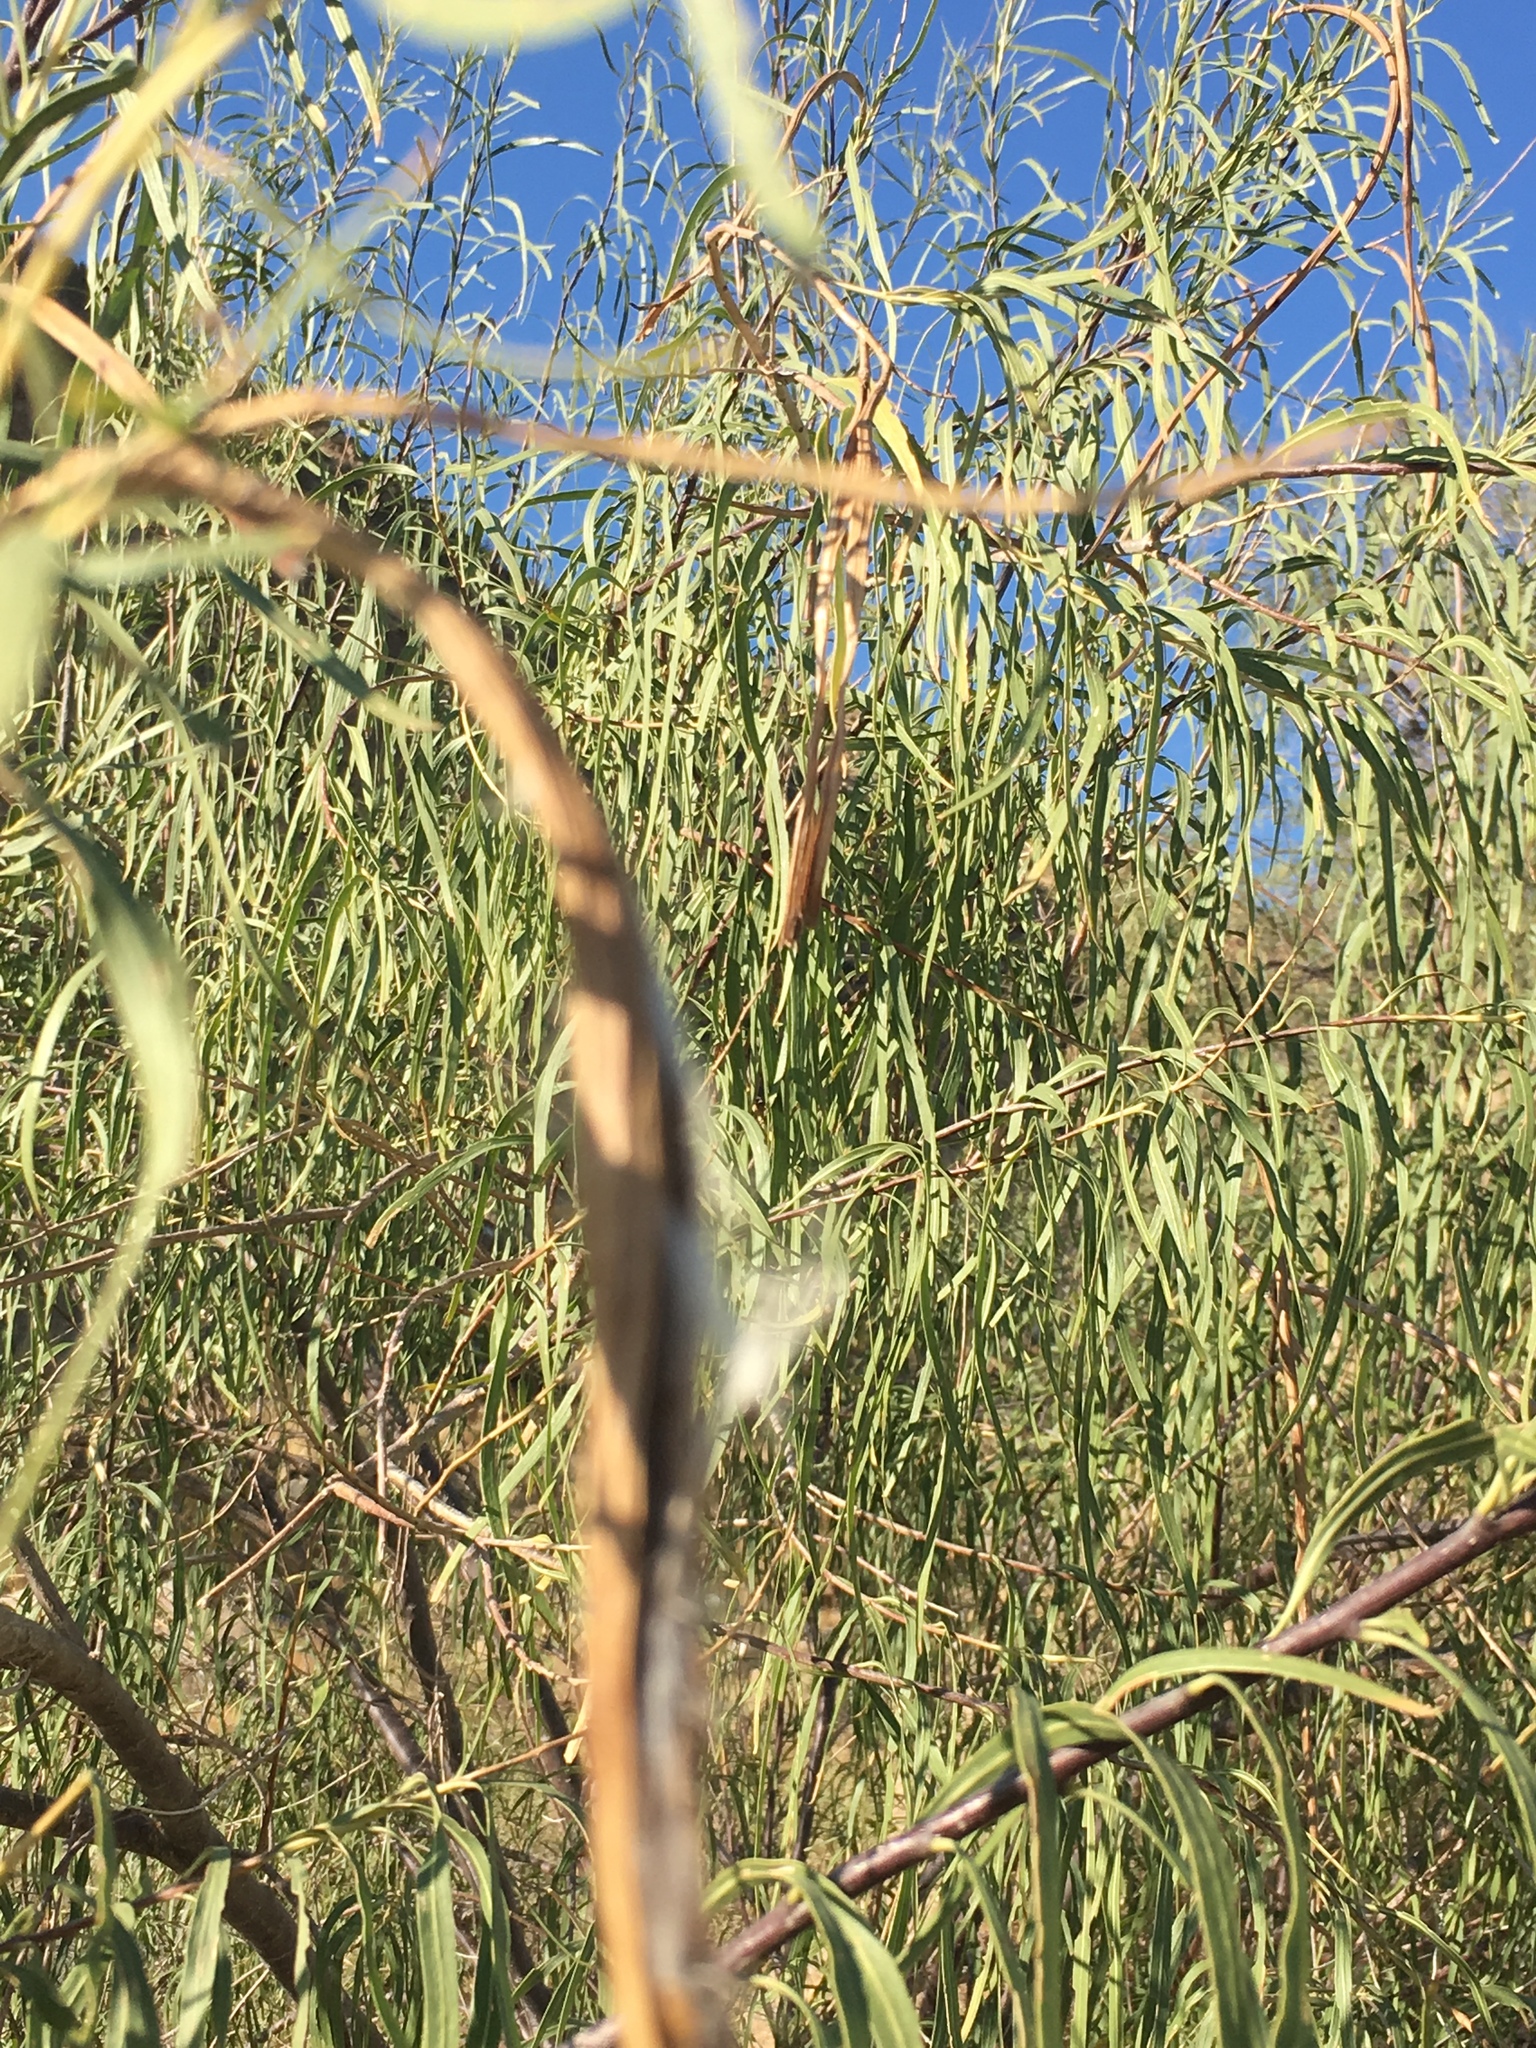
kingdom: Plantae
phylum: Tracheophyta
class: Magnoliopsida
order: Lamiales
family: Bignoniaceae
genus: Chilopsis
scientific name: Chilopsis linearis
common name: Desert-willow
